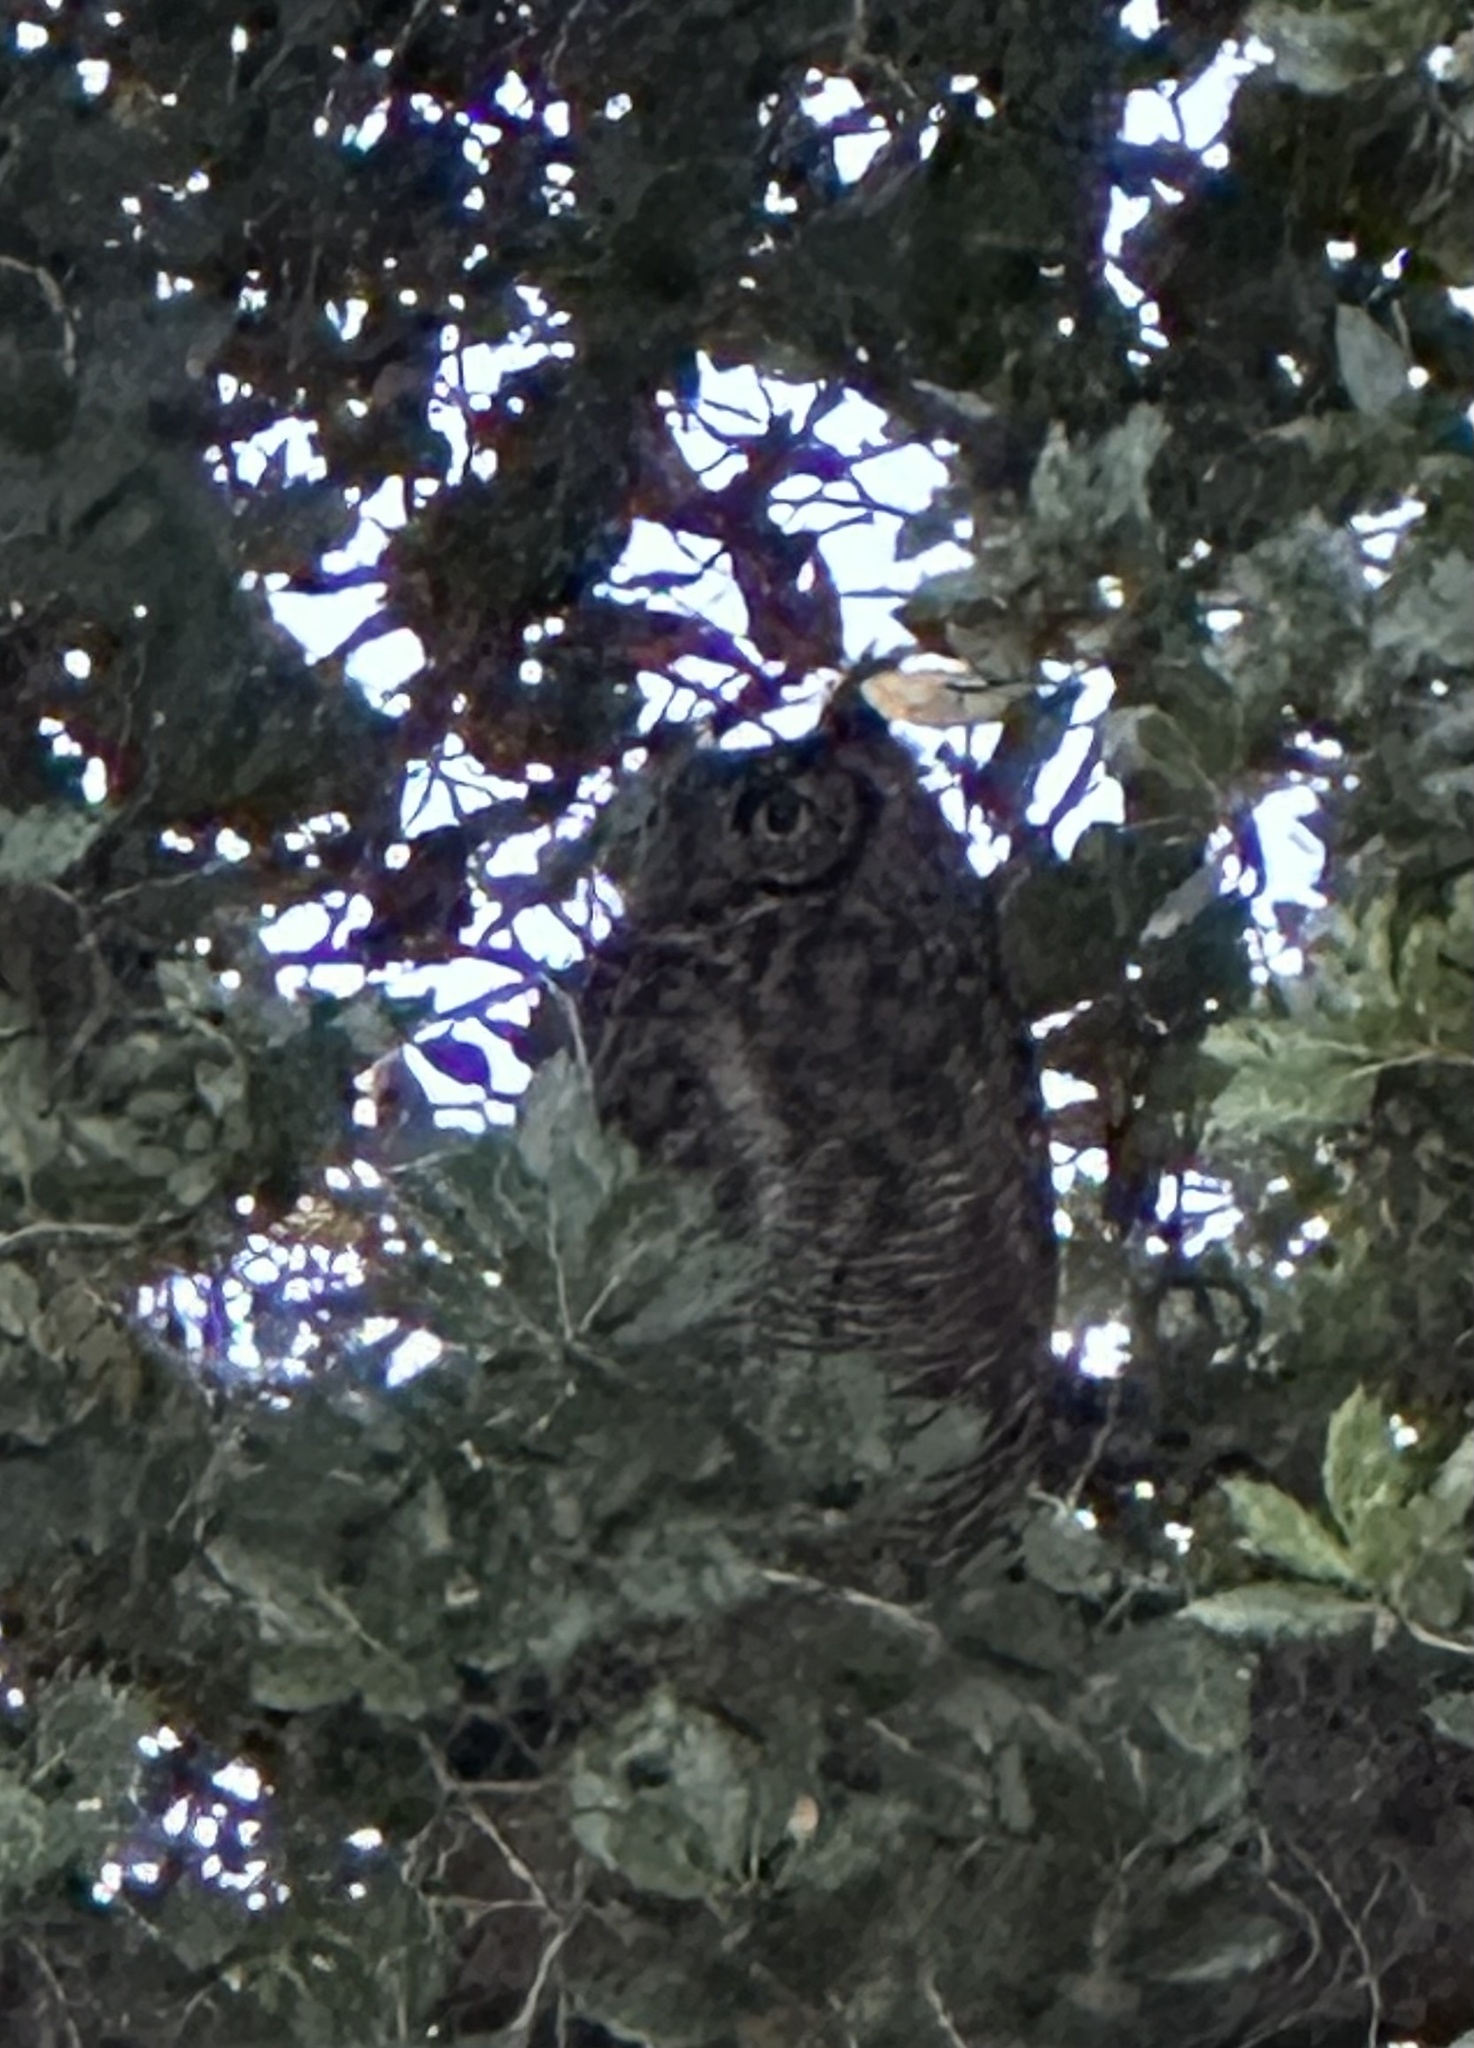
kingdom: Animalia
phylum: Chordata
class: Aves
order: Strigiformes
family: Strigidae
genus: Bubo
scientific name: Bubo virginianus
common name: Great horned owl
